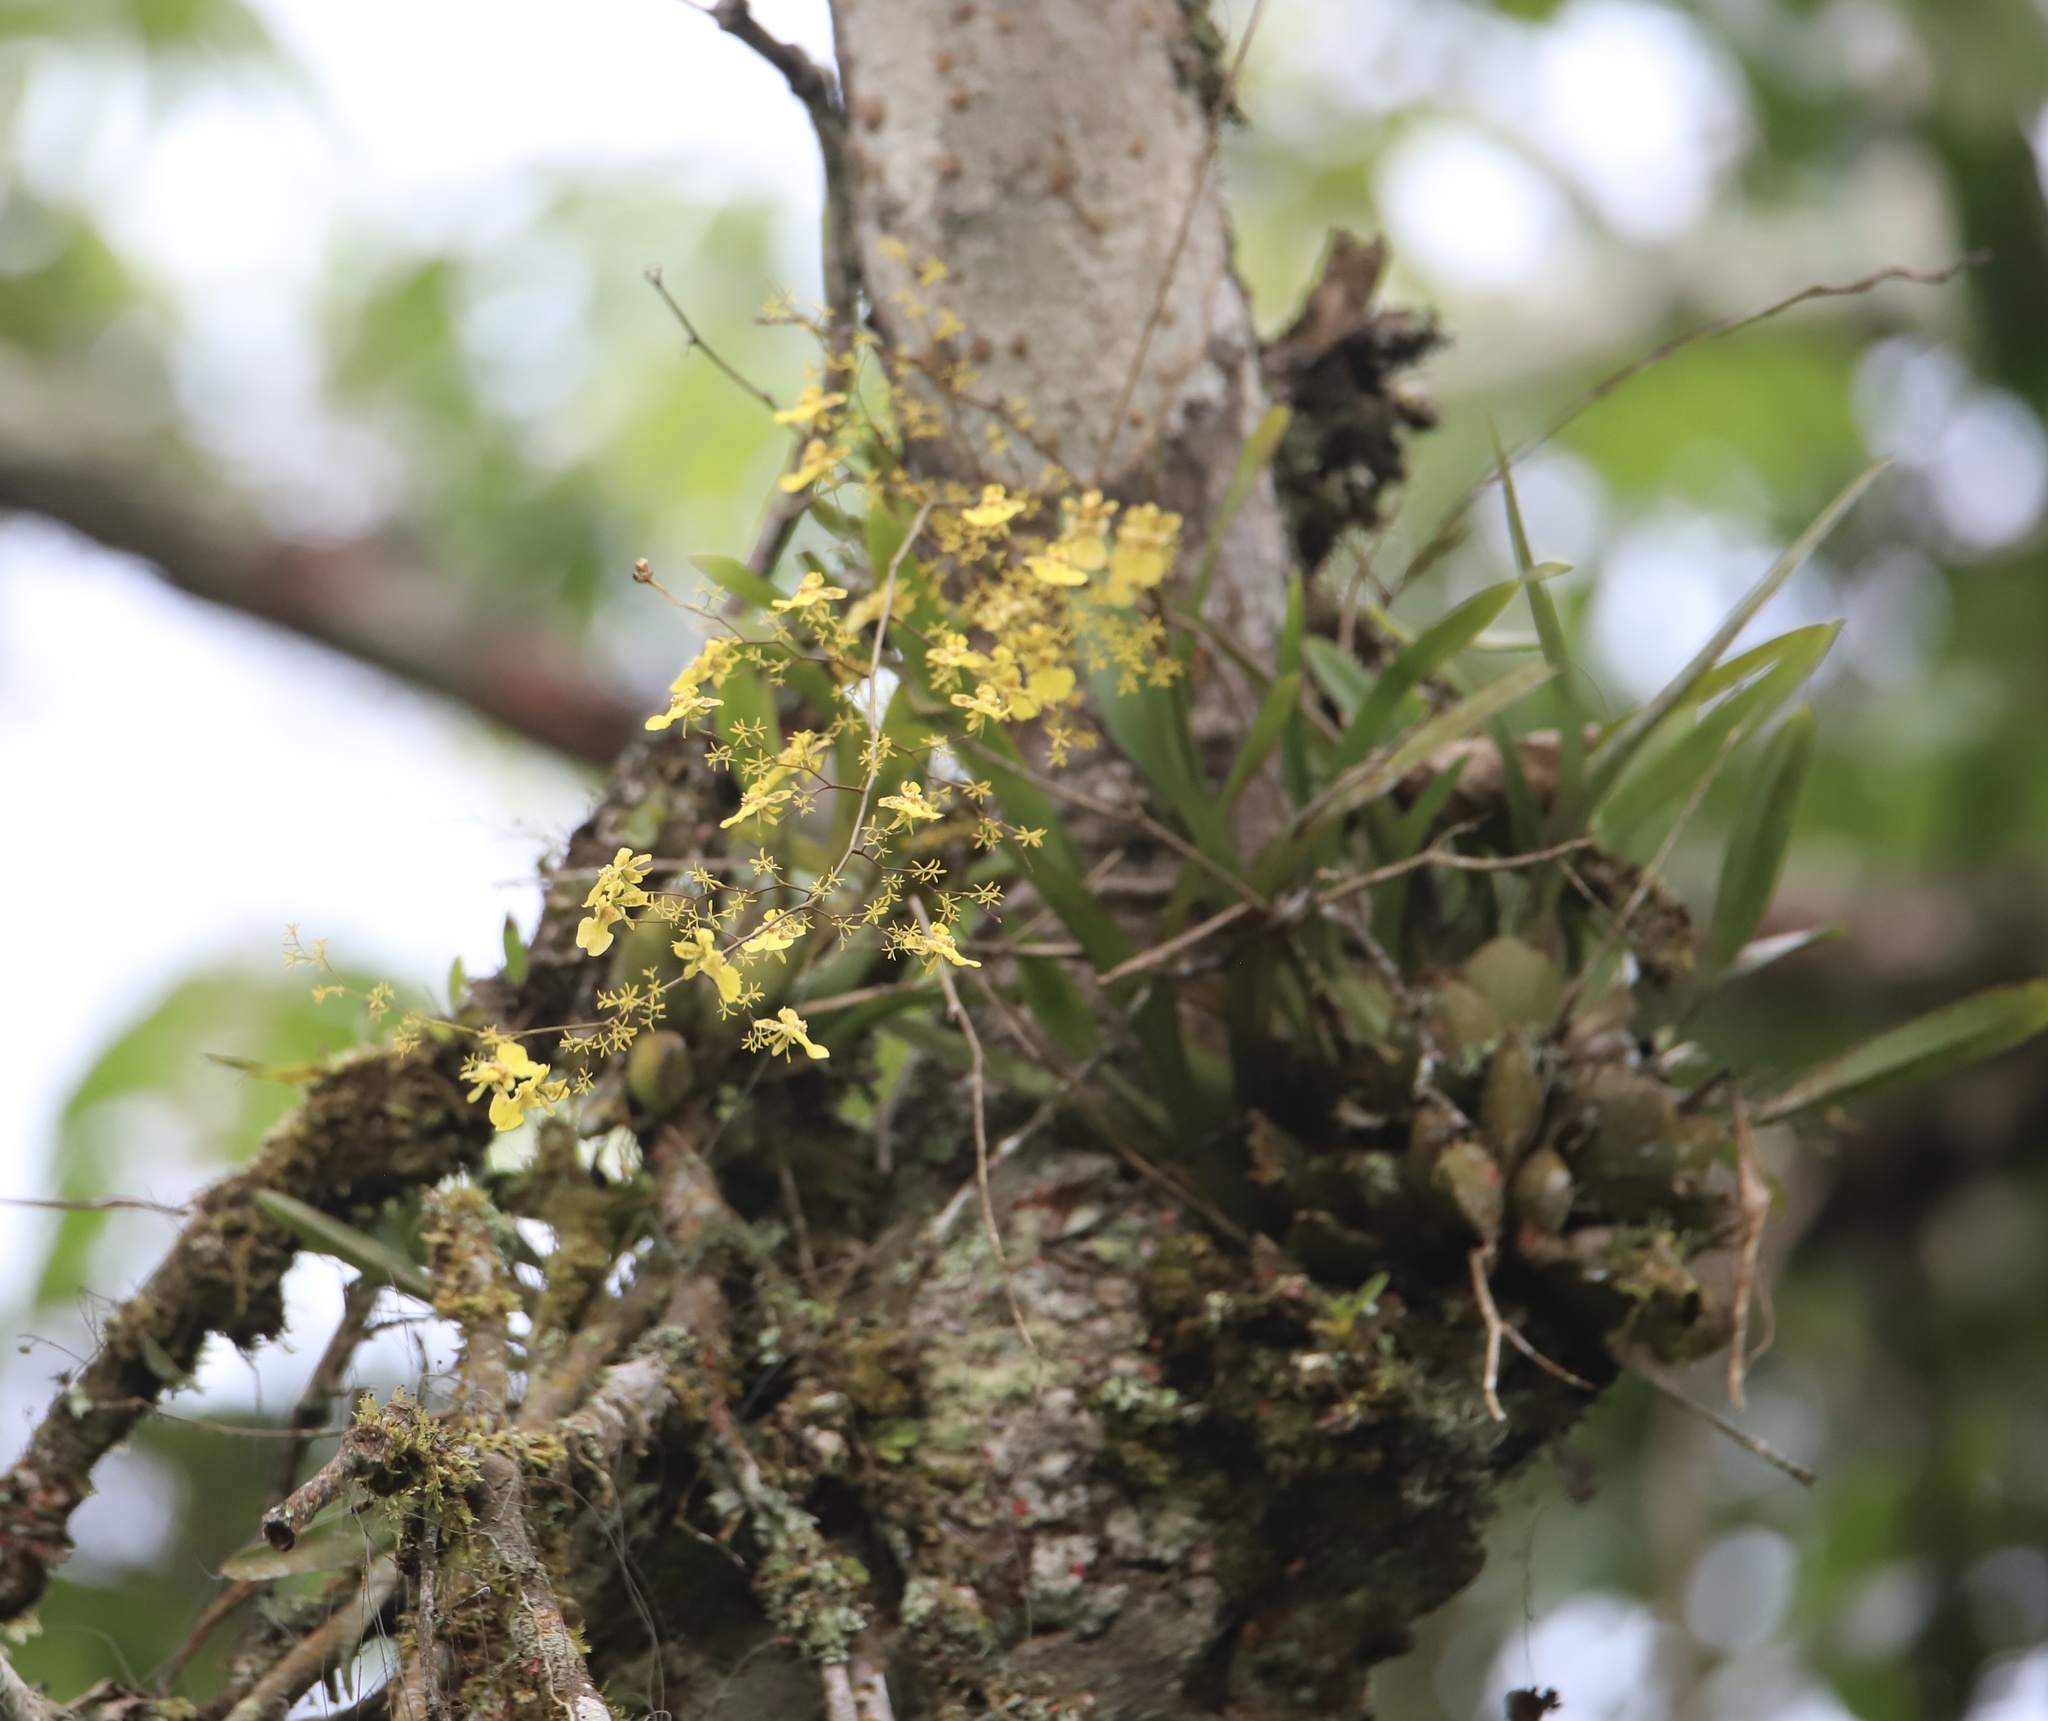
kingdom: Plantae
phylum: Tracheophyta
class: Liliopsida
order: Asparagales
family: Orchidaceae
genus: Oncidium
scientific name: Oncidium abortivum
